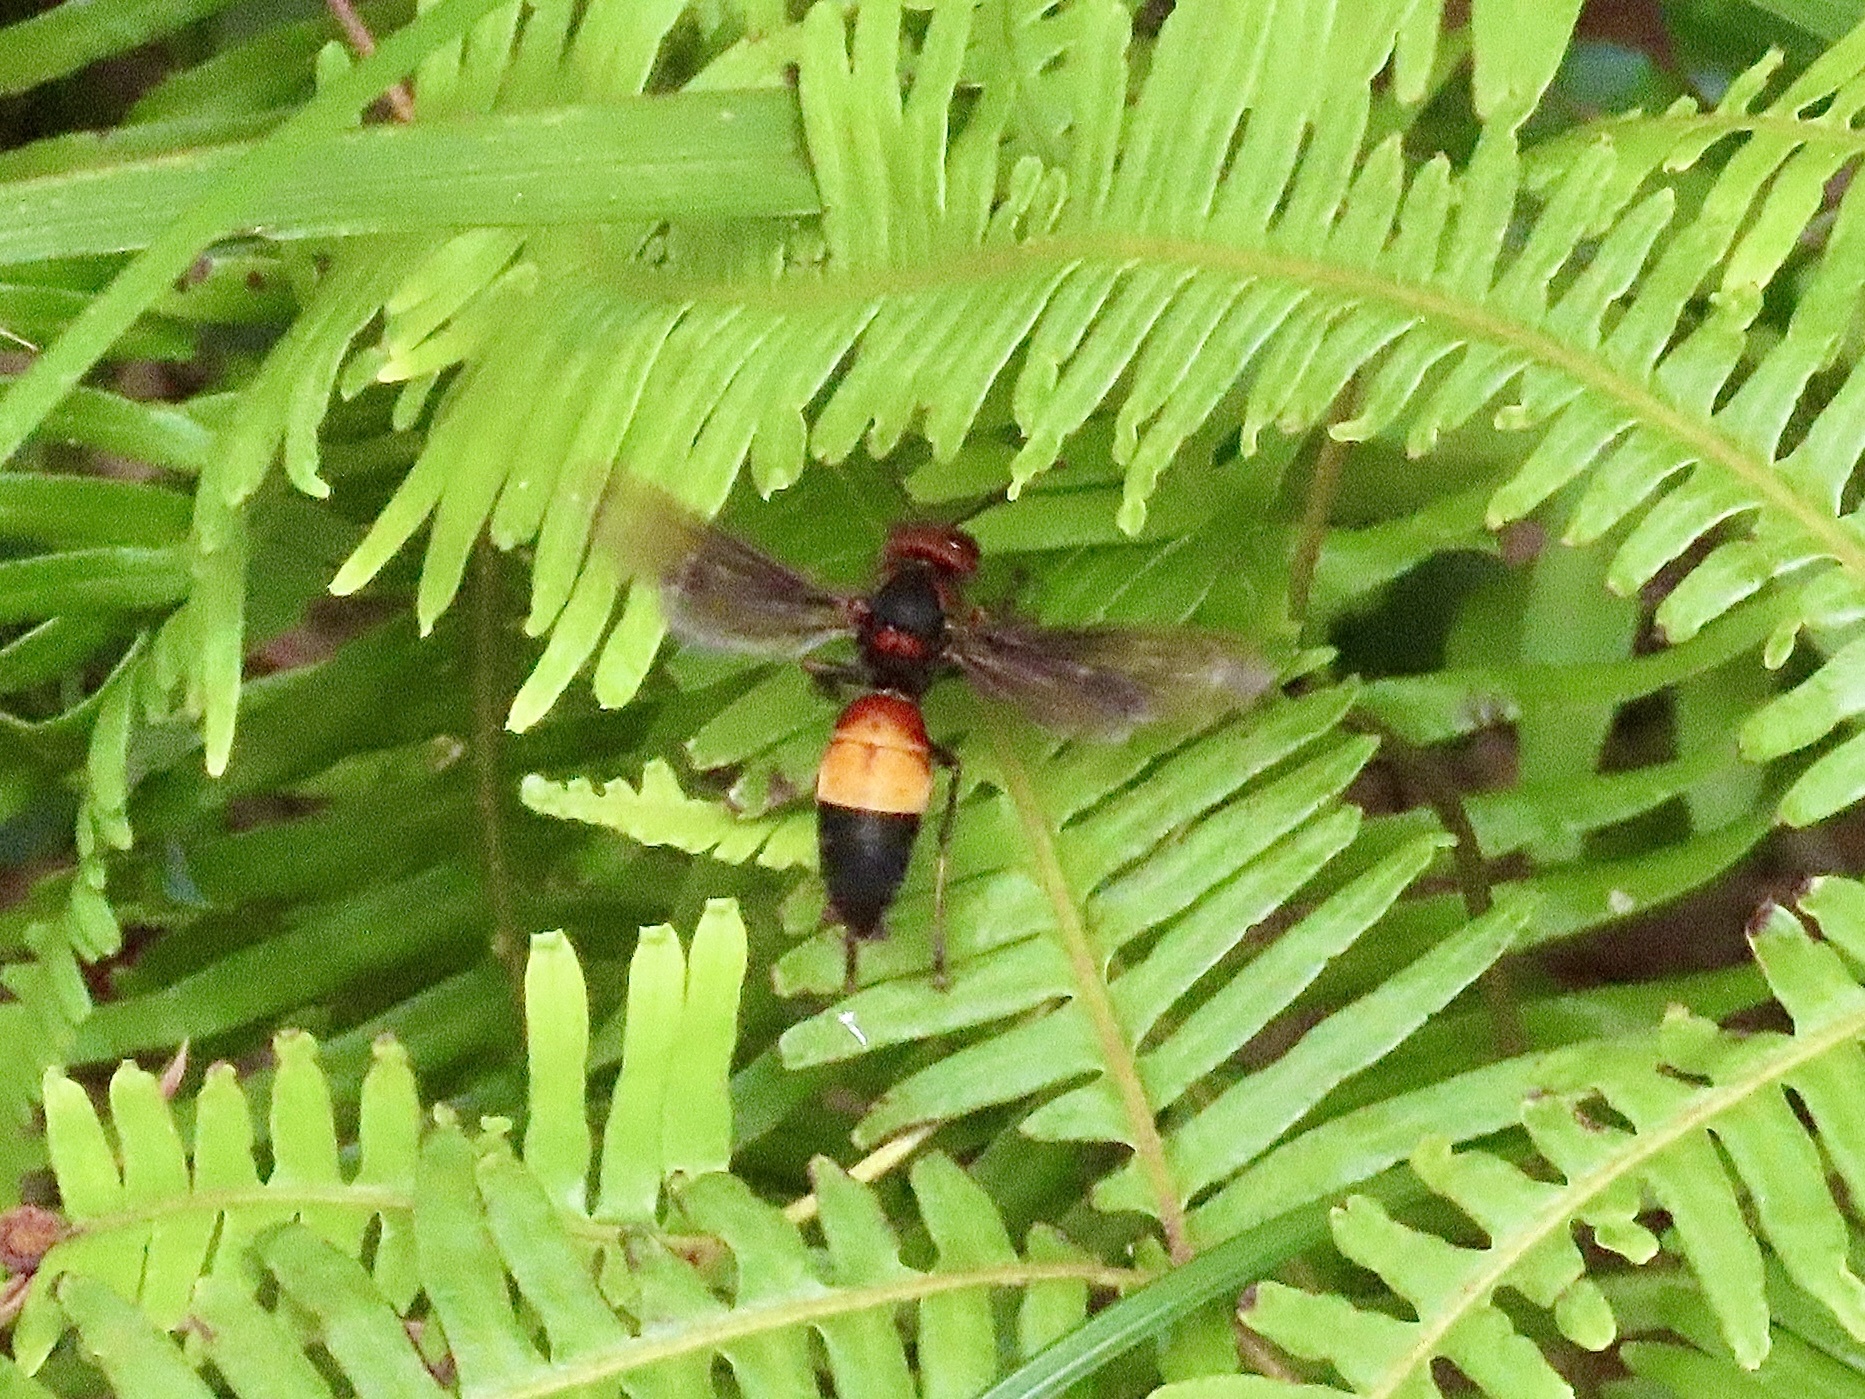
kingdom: Animalia
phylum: Arthropoda
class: Insecta
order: Hymenoptera
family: Vespidae
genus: Vespa
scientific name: Vespa affinis
